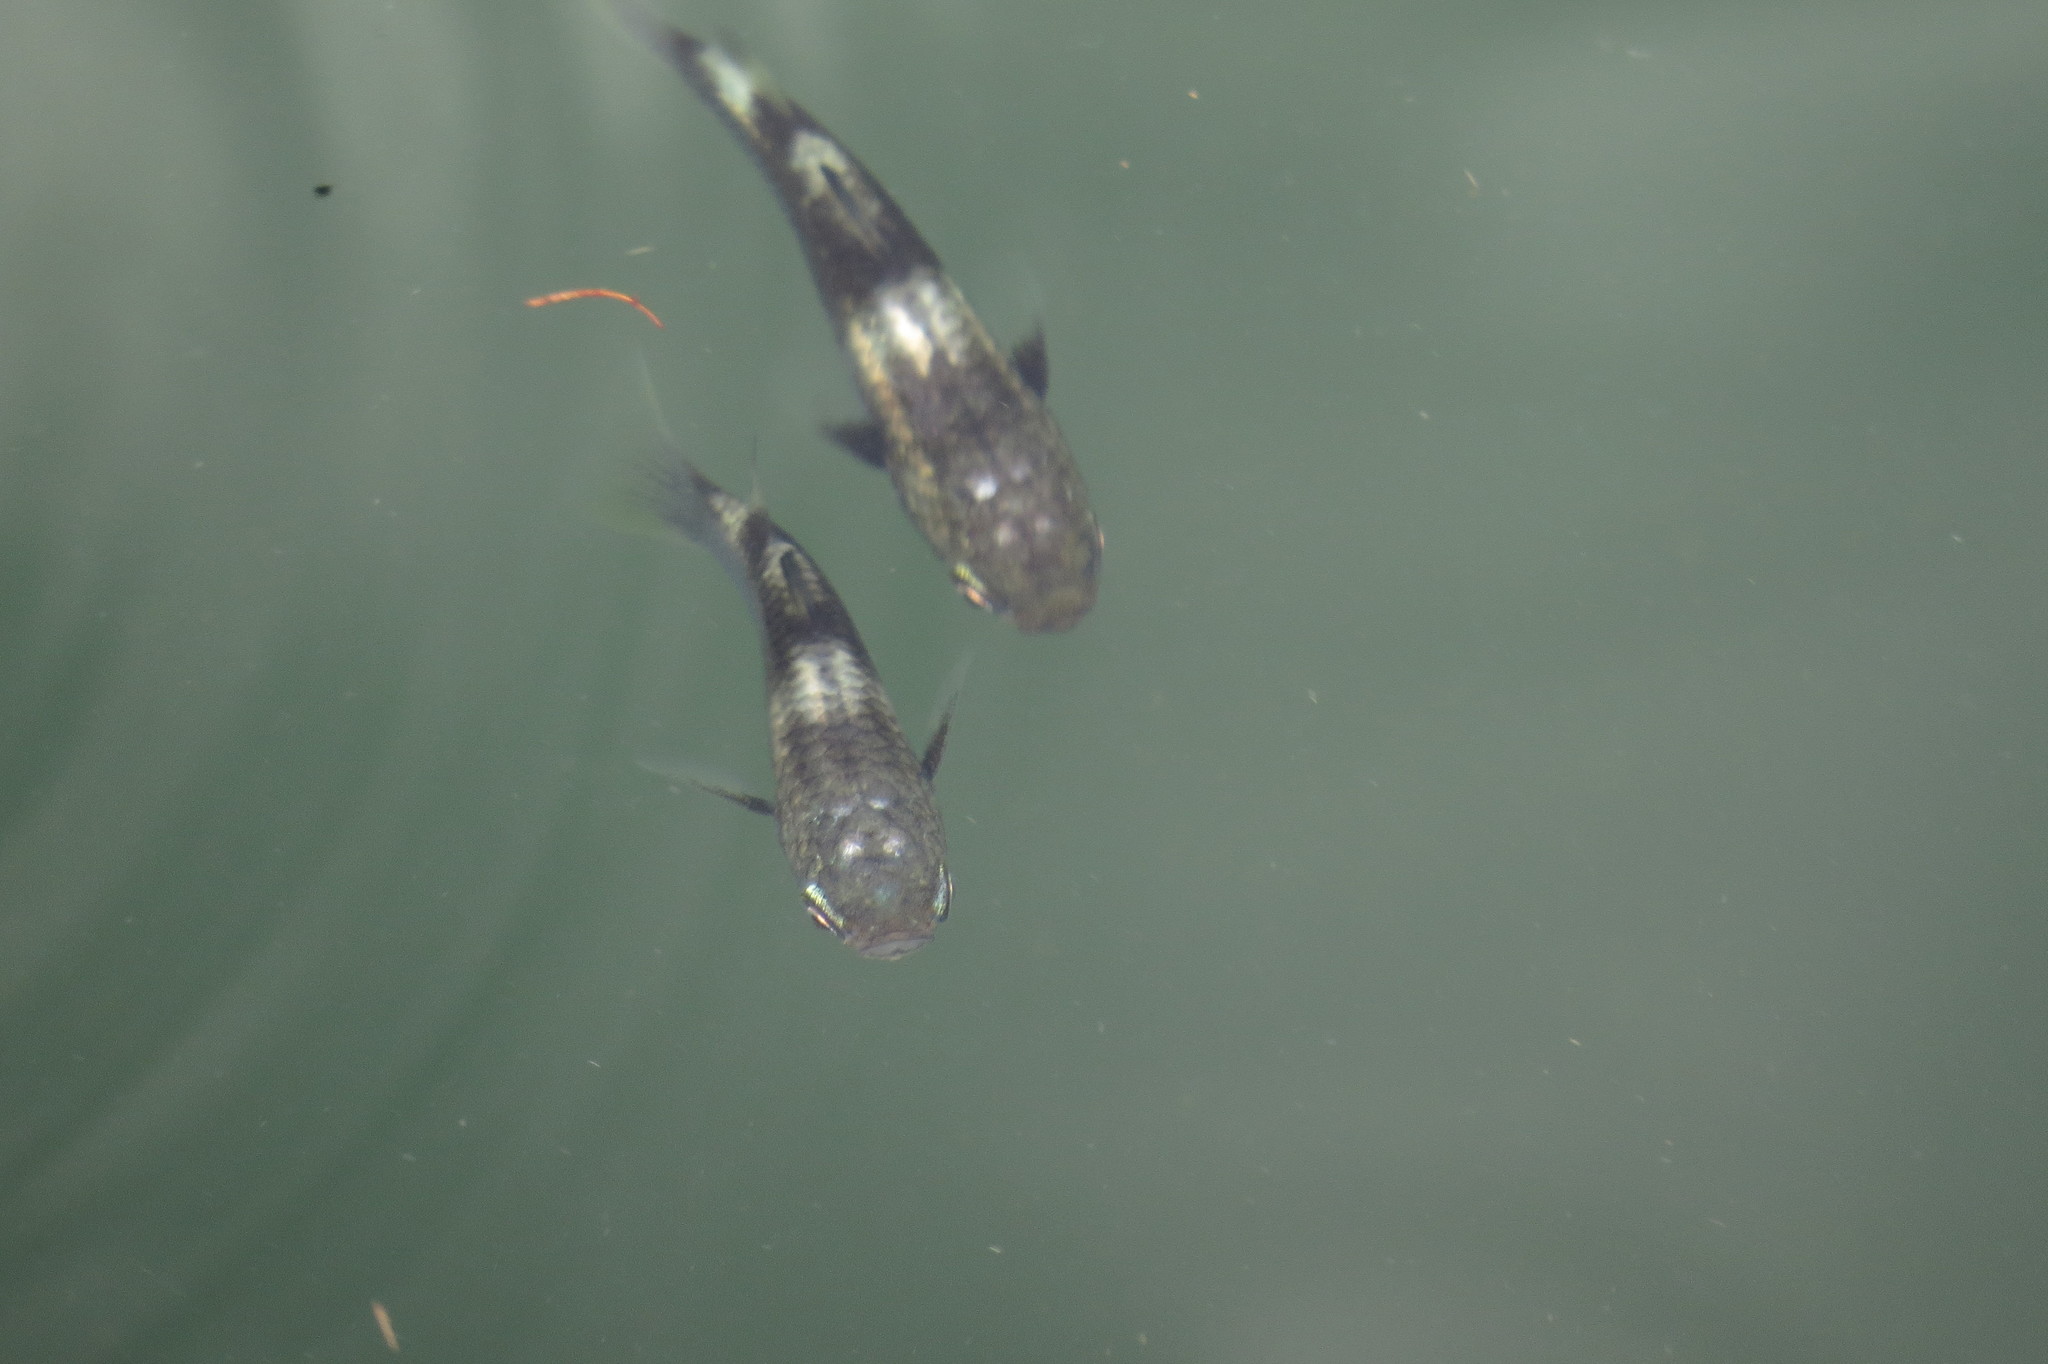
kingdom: Animalia
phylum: Chordata
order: Mugiliformes
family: Mugilidae
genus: Ellochelon
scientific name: Ellochelon vaigiensis
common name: Squaretail mullet
